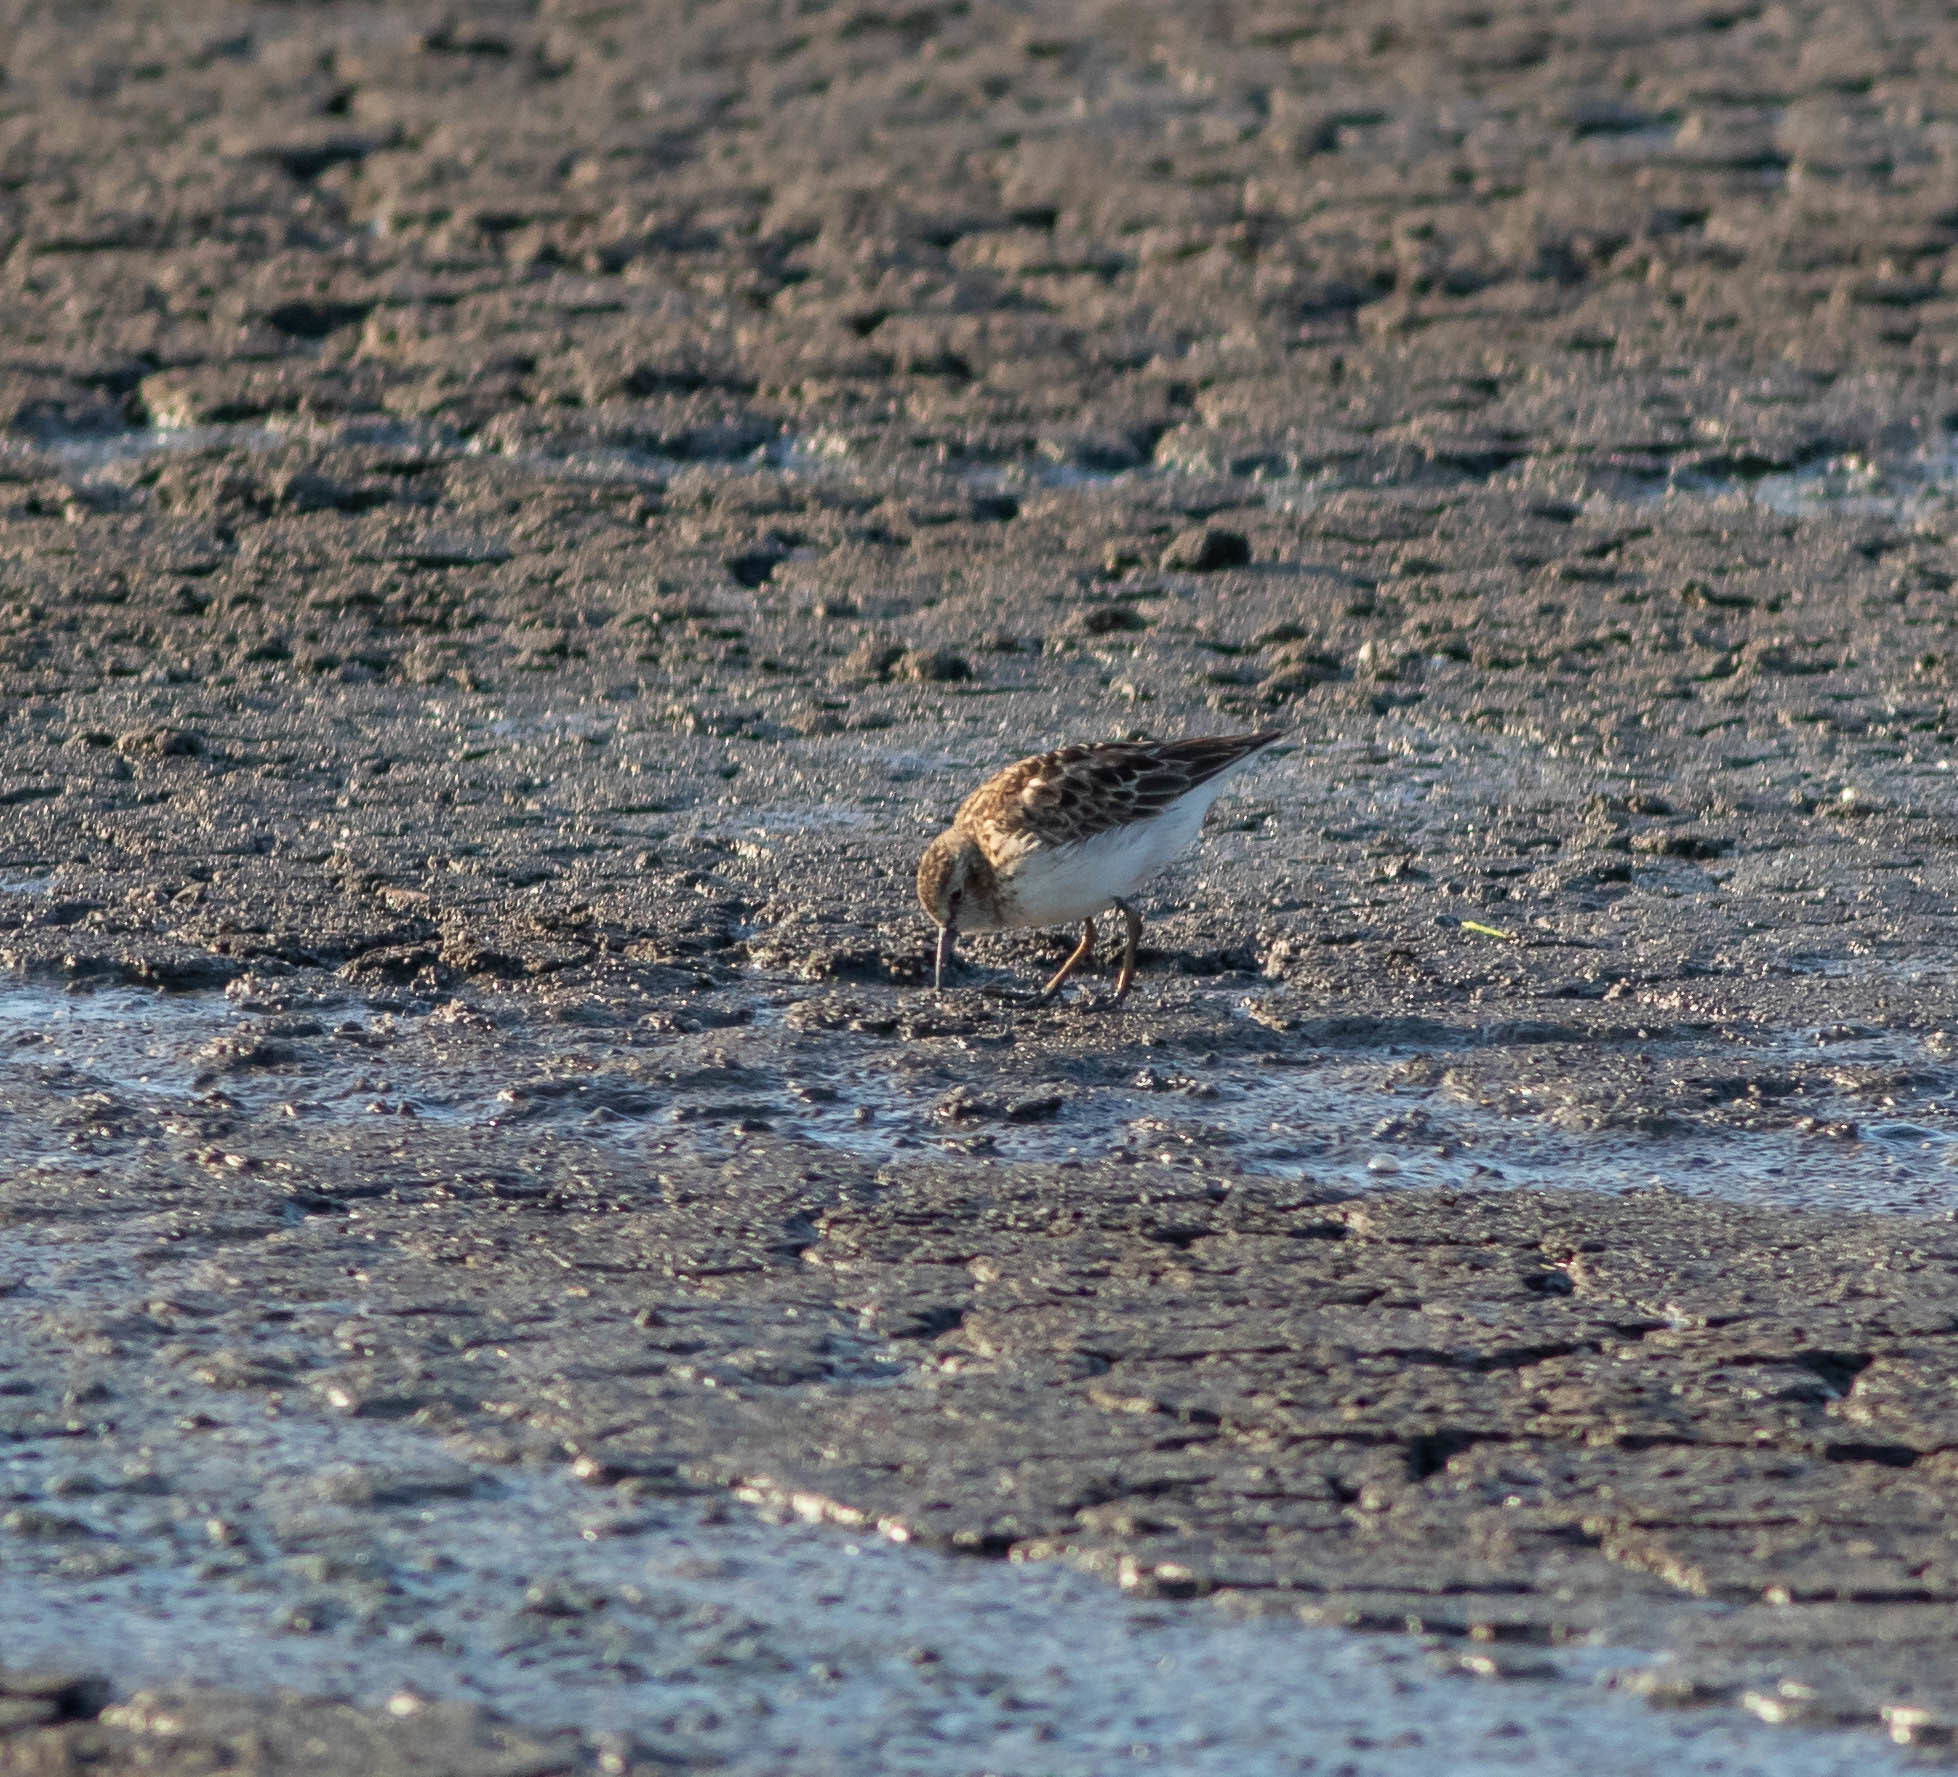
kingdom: Animalia
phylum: Chordata
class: Aves
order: Charadriiformes
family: Scolopacidae
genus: Calidris
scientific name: Calidris minutilla
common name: Least sandpiper
